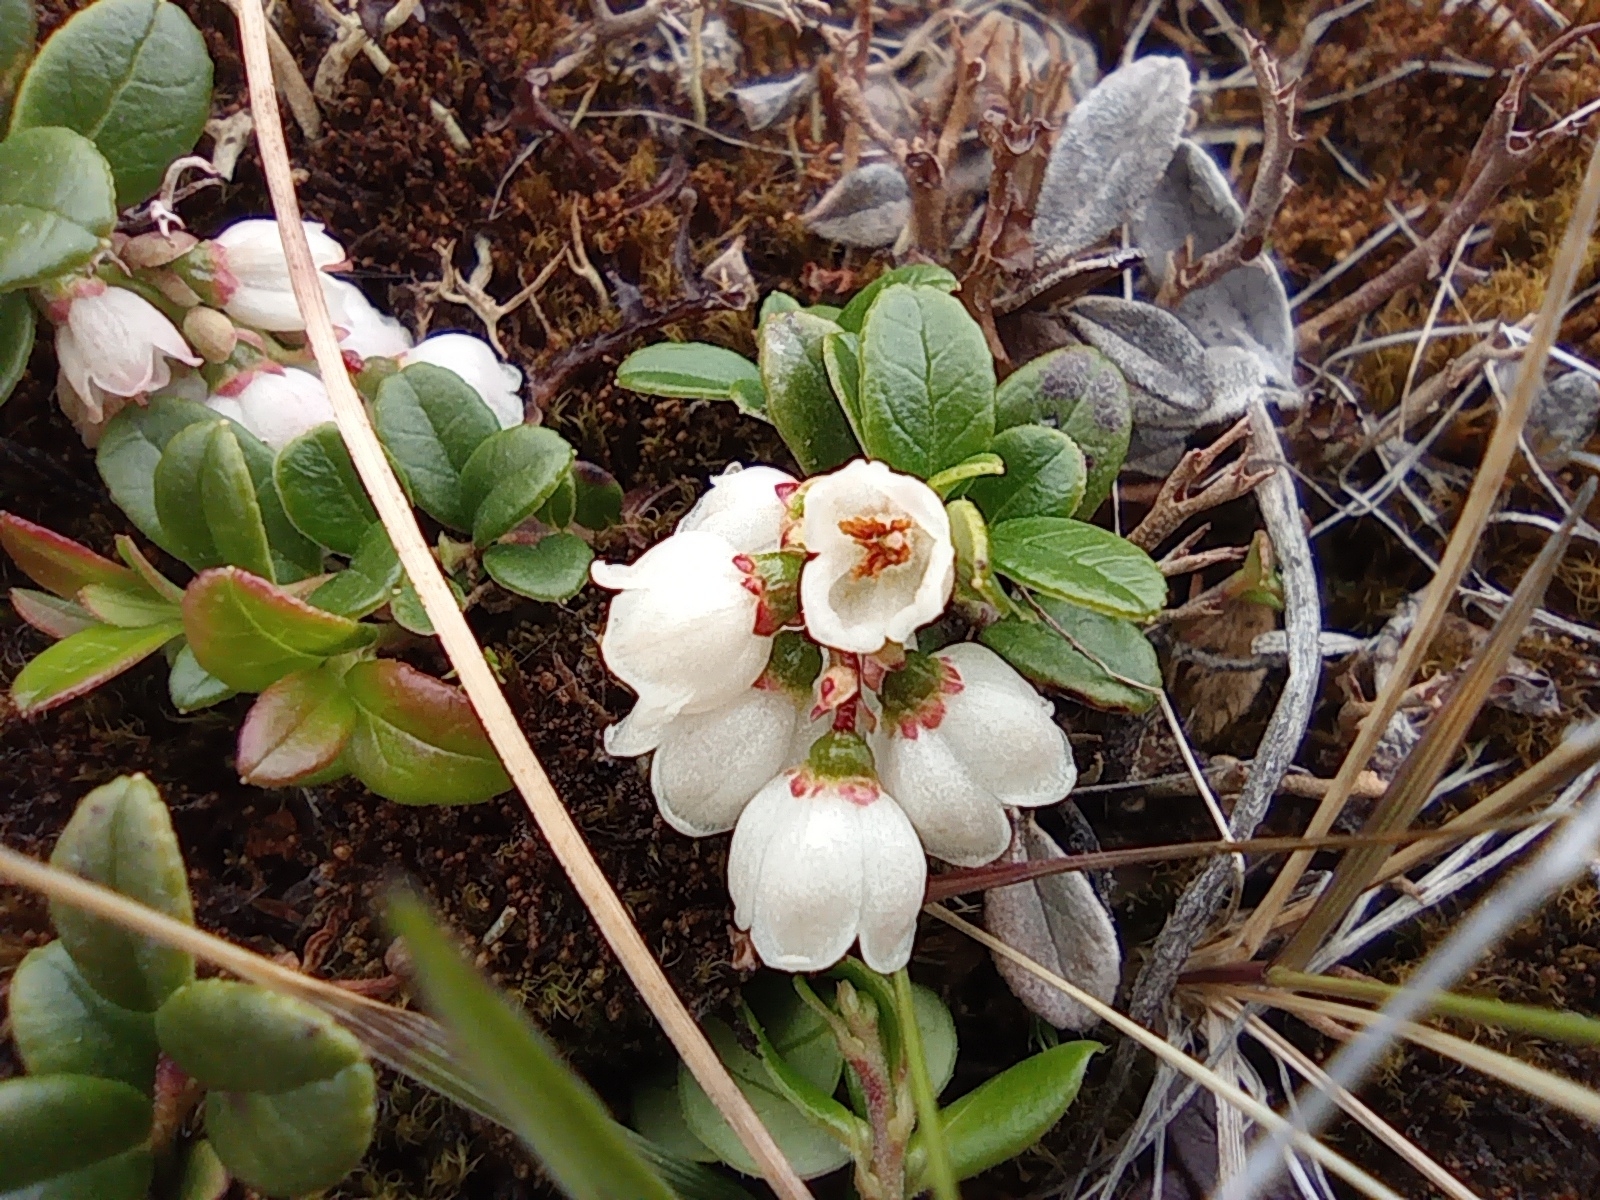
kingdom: Plantae
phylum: Tracheophyta
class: Magnoliopsida
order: Ericales
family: Ericaceae
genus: Vaccinium
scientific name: Vaccinium vitis-idaea
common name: Cowberry
